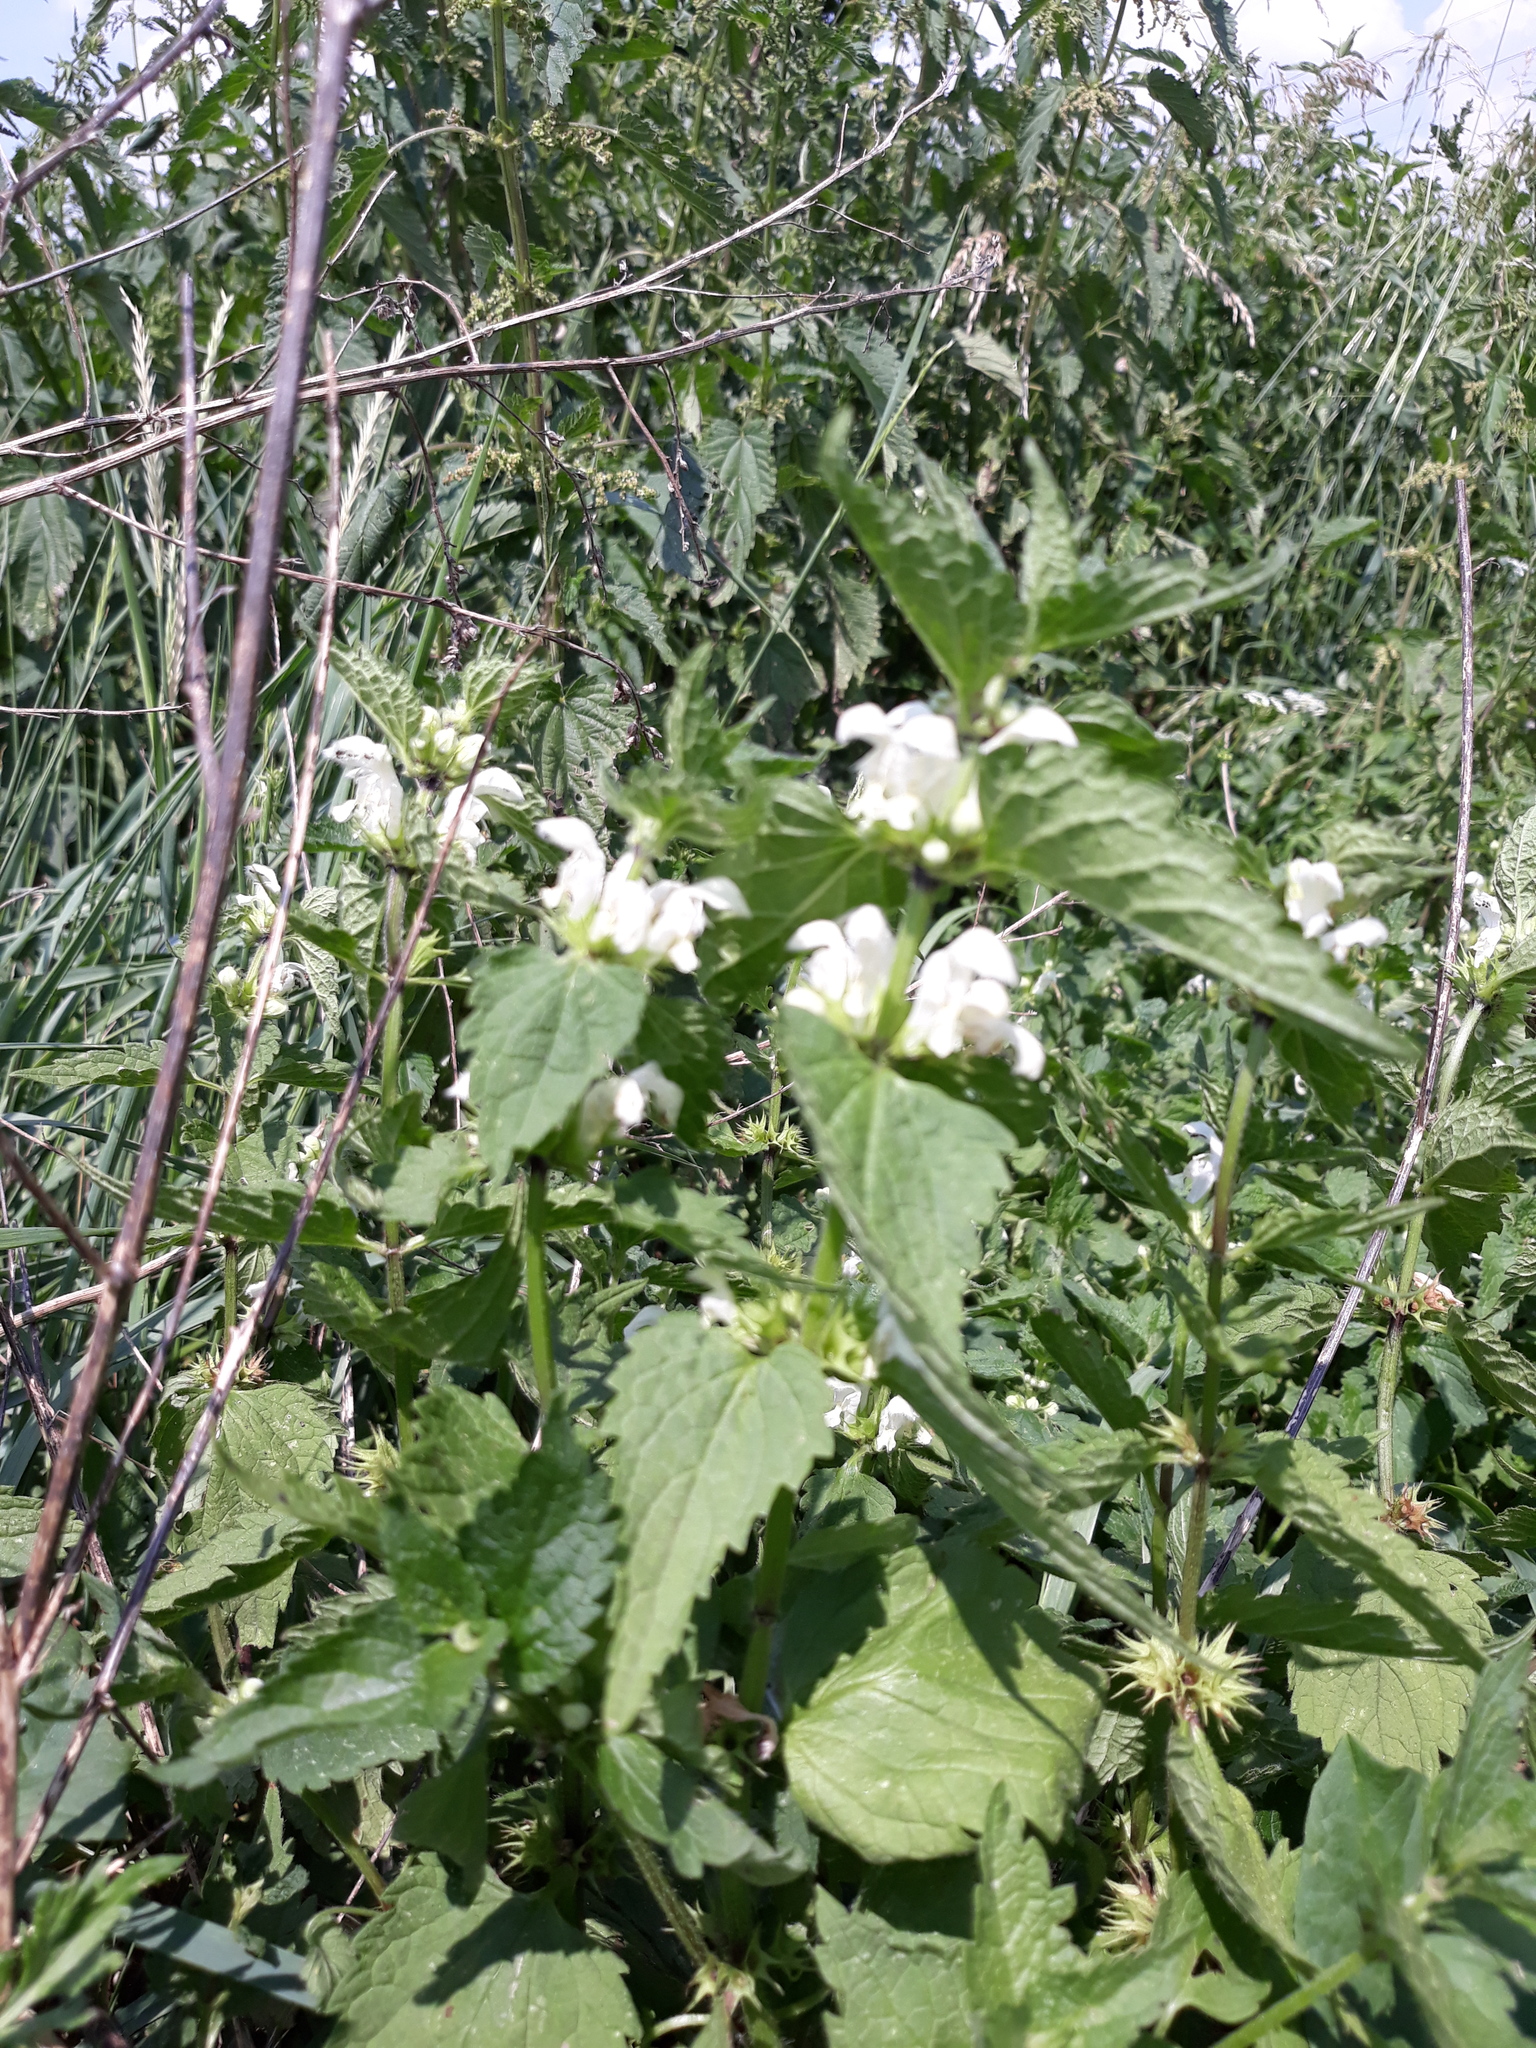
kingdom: Plantae
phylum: Tracheophyta
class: Magnoliopsida
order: Lamiales
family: Lamiaceae
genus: Lamium
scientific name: Lamium album
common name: White dead-nettle
